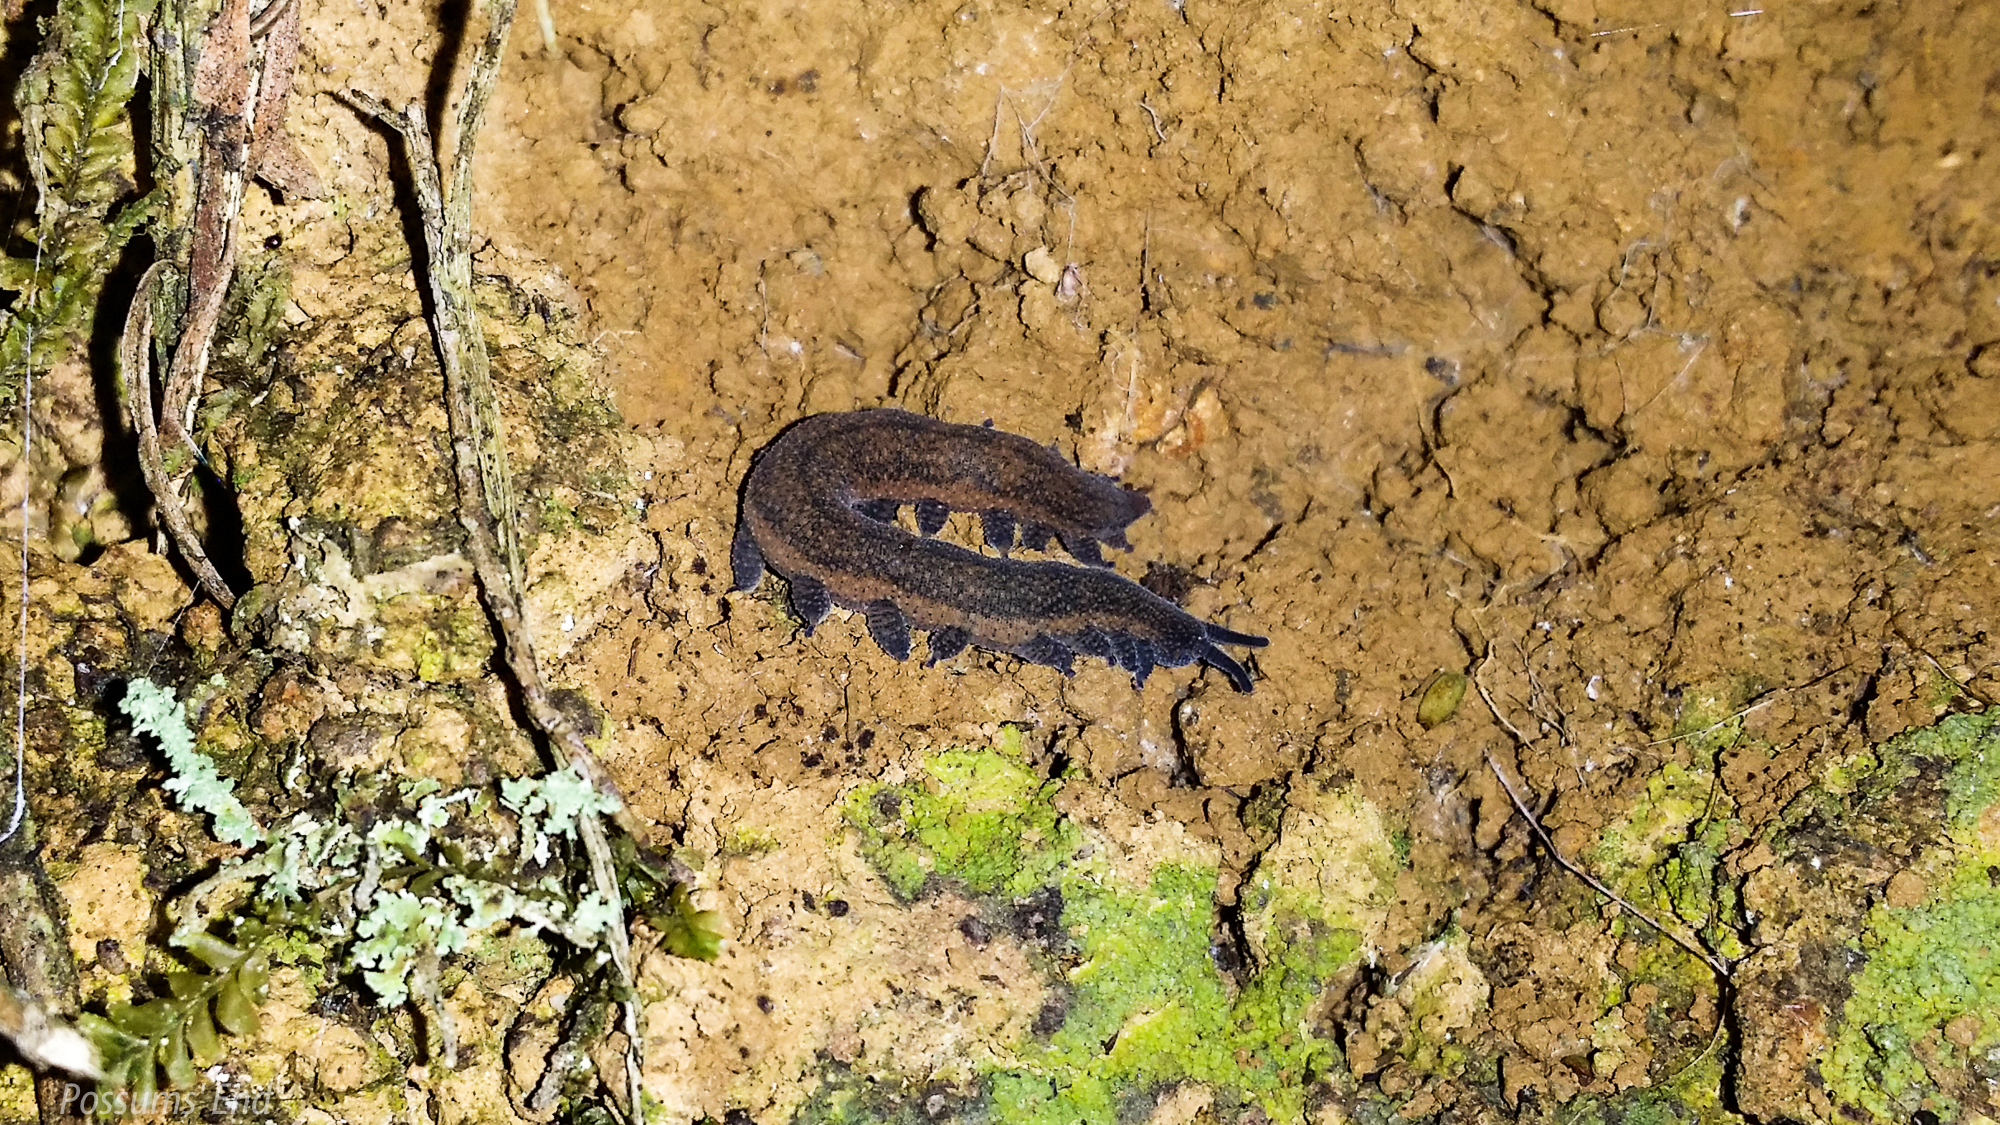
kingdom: Animalia
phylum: Onychophora
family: Peripatopsidae
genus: Peripatoides
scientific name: Peripatoides
